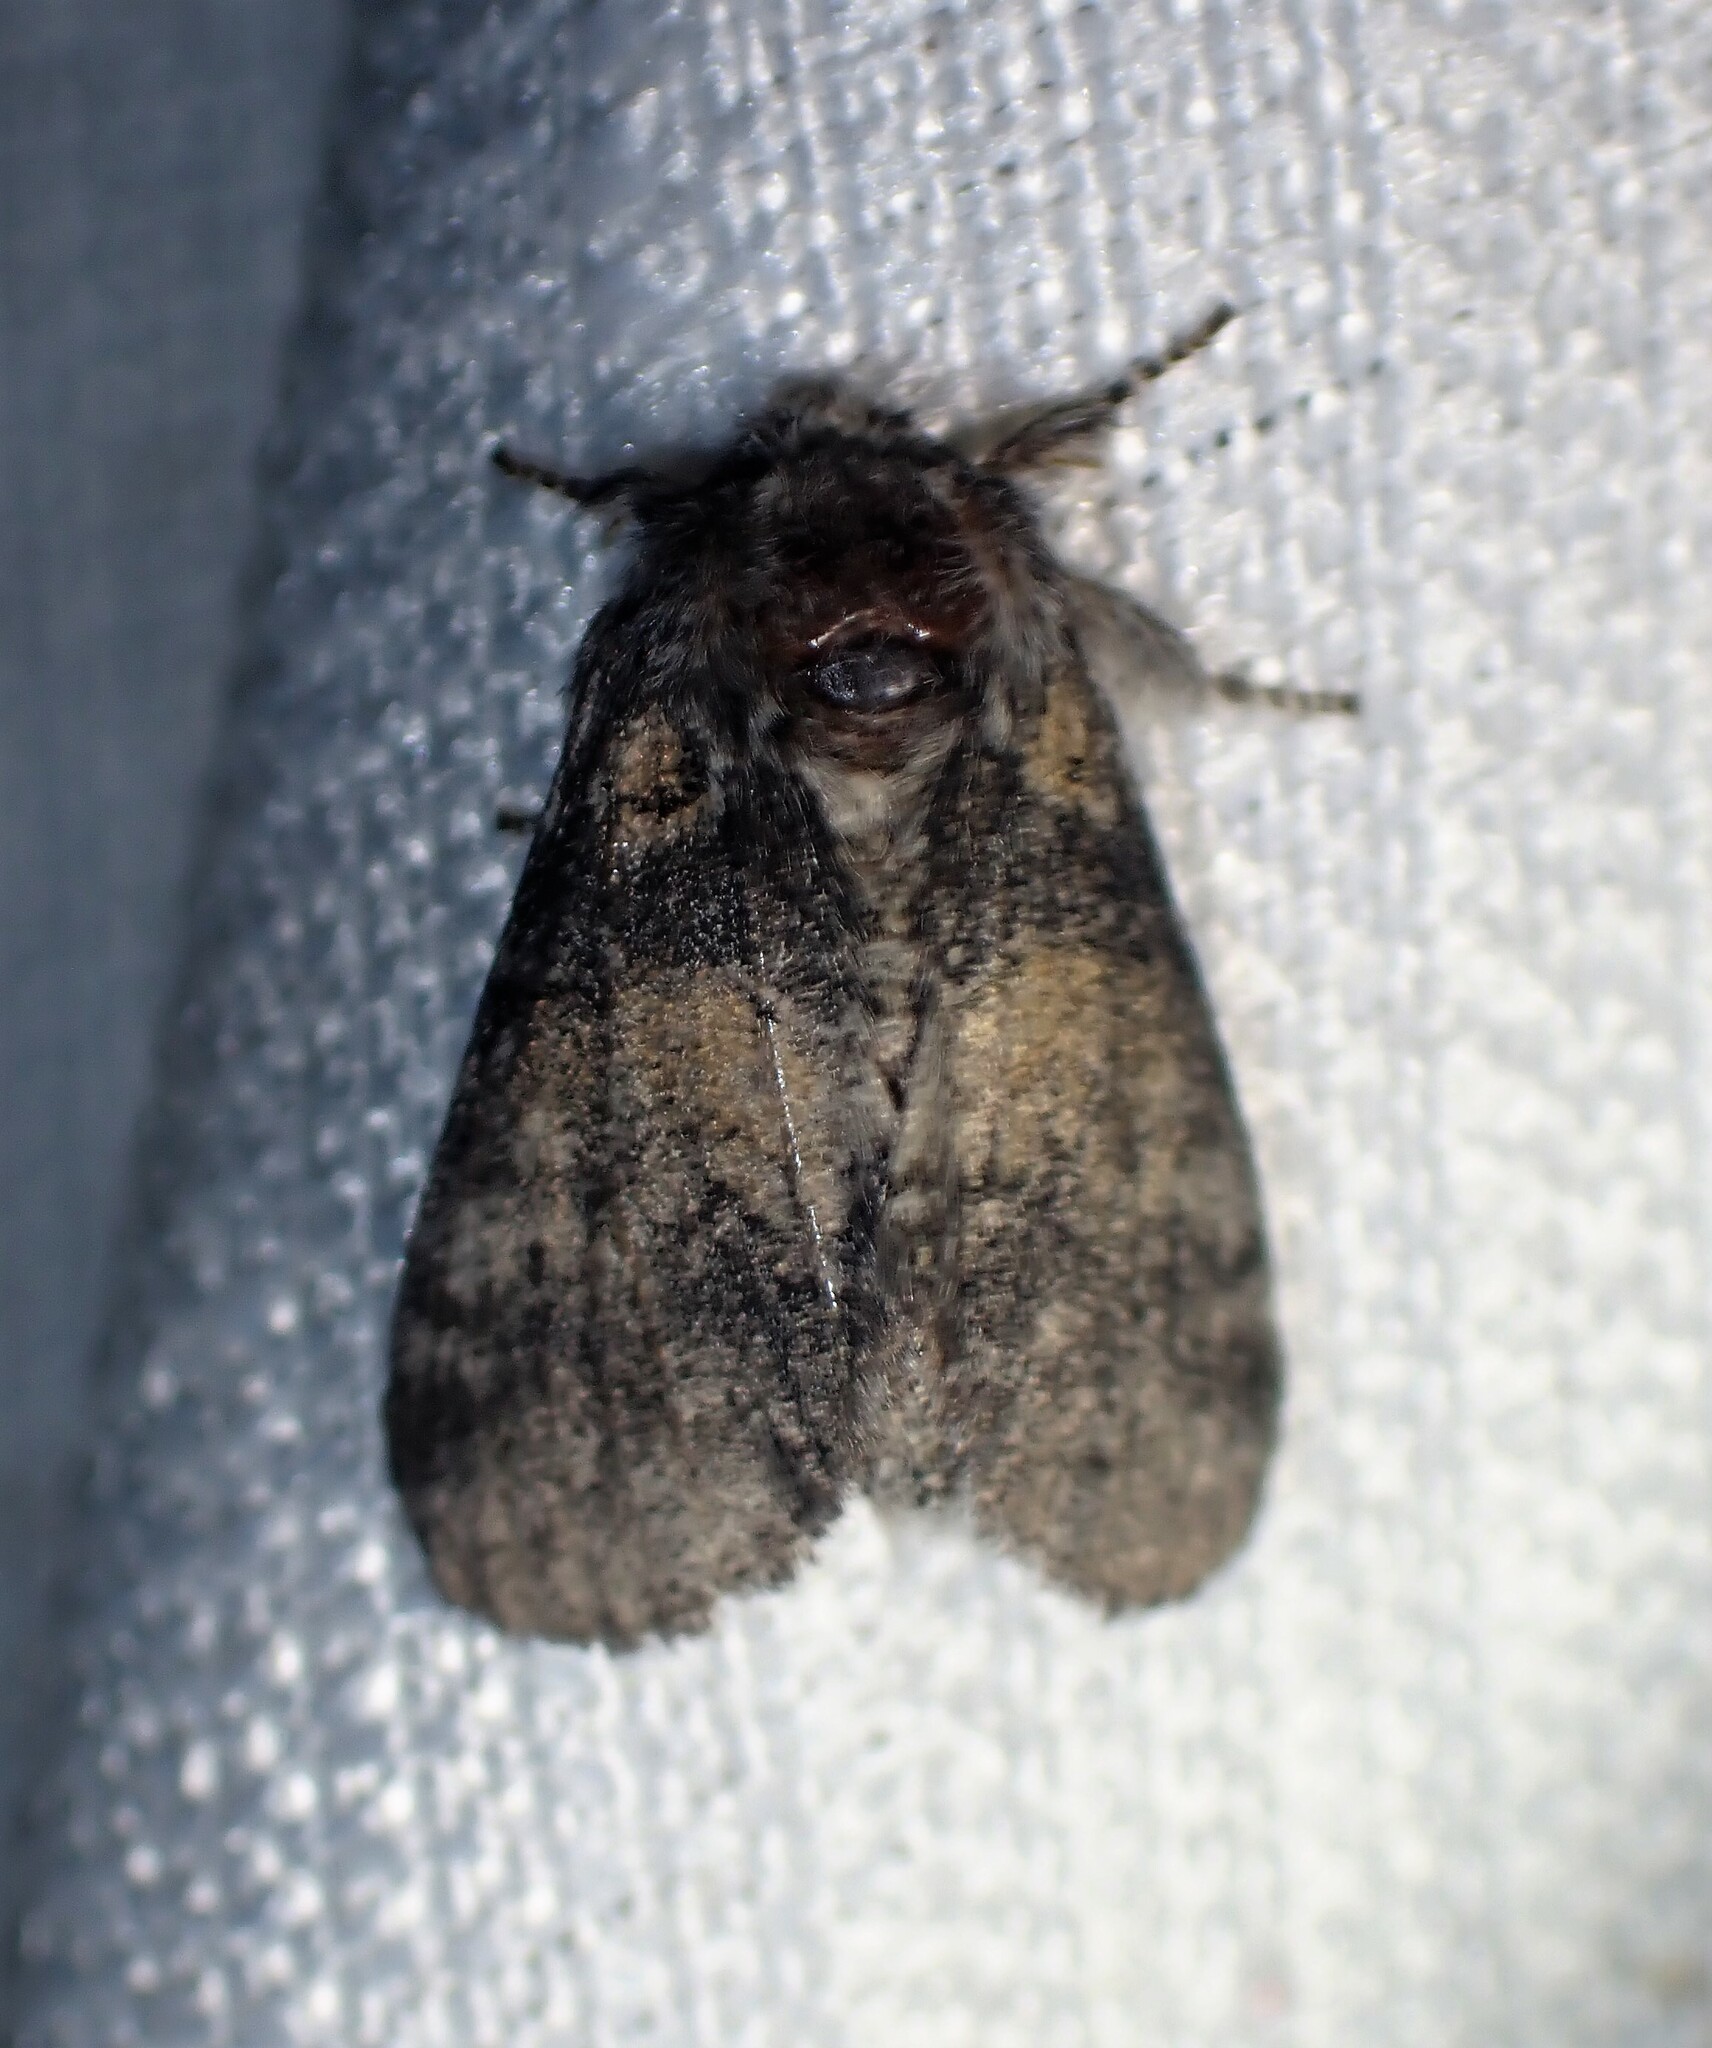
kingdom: Animalia
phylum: Arthropoda
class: Insecta
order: Lepidoptera
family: Notodontidae
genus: Gluphisia
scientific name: Gluphisia septentrionis
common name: Common gluphisia
